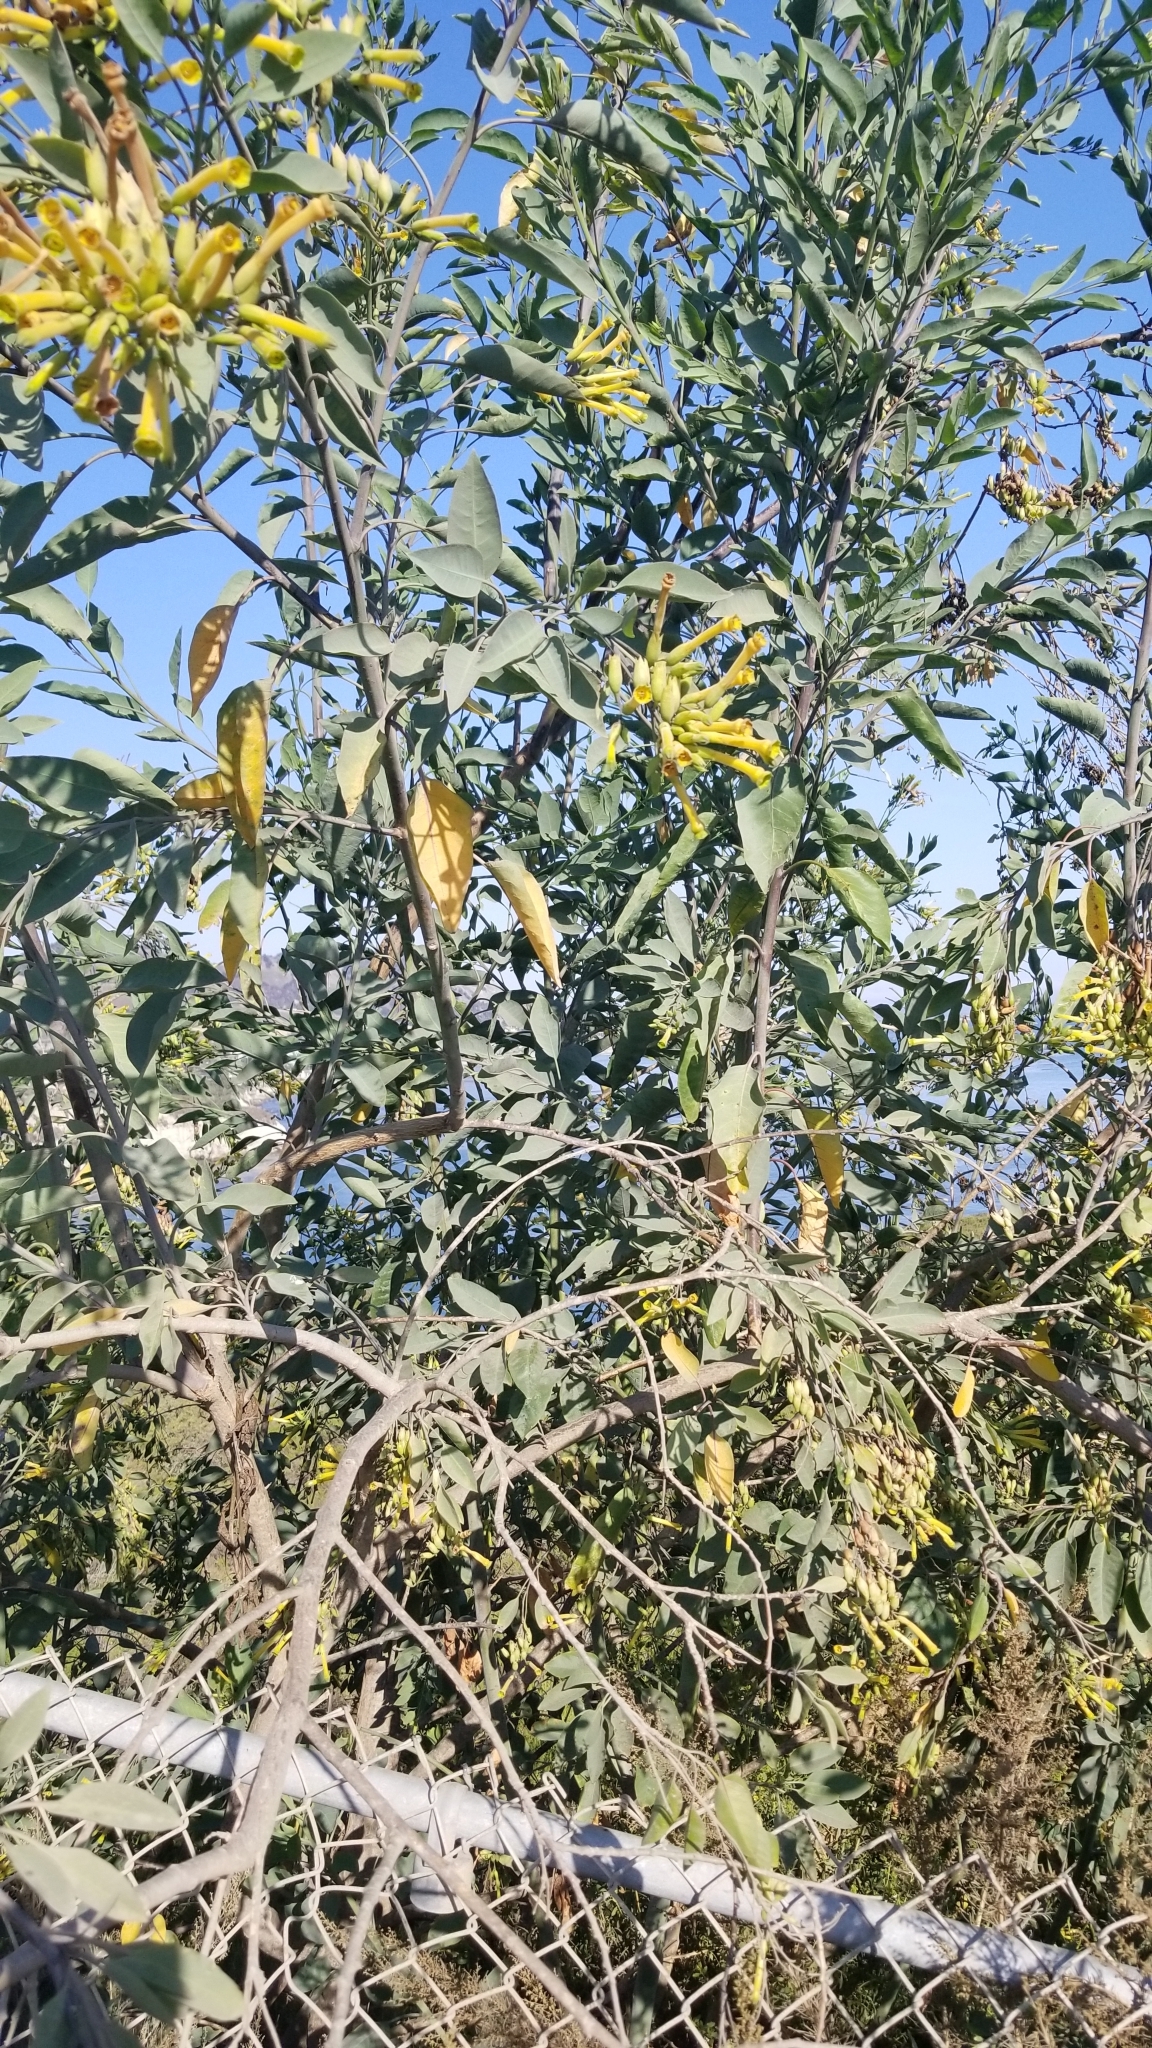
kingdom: Plantae
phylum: Tracheophyta
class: Magnoliopsida
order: Solanales
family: Solanaceae
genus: Nicotiana
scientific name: Nicotiana glauca
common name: Tree tobacco
